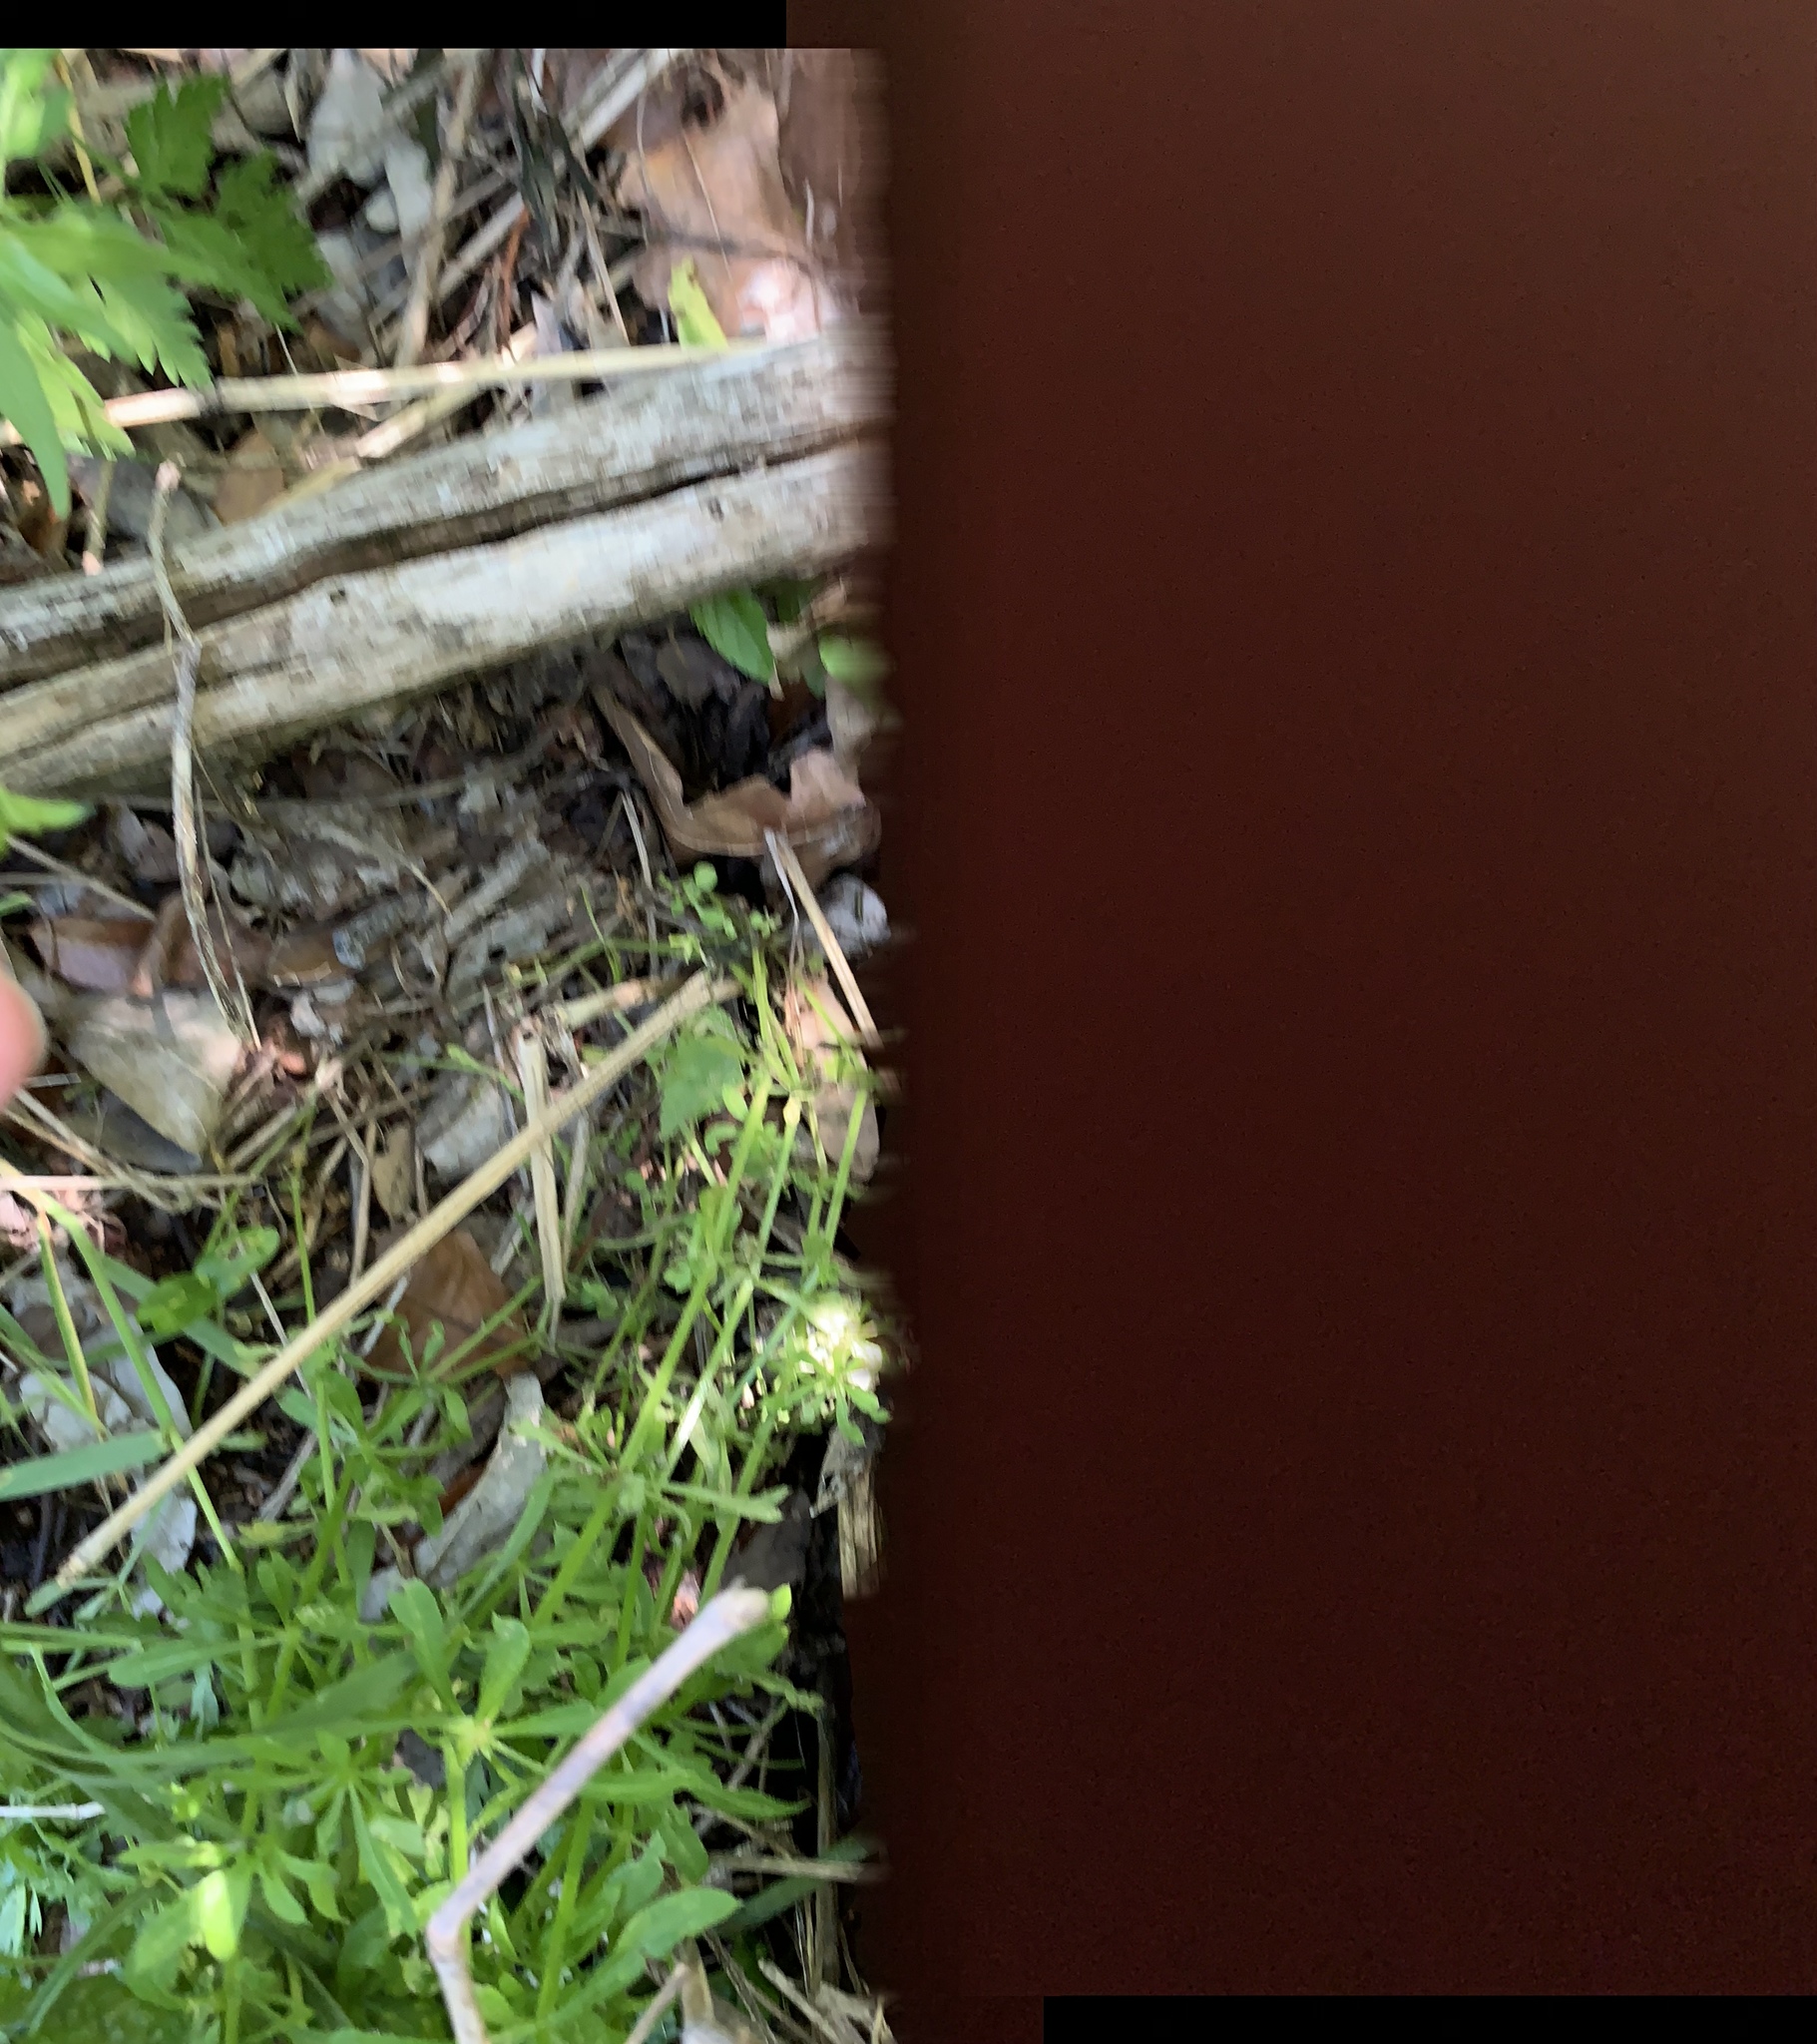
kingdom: Plantae
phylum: Tracheophyta
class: Magnoliopsida
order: Gentianales
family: Rubiaceae
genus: Galium
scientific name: Galium aparine
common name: Cleavers
